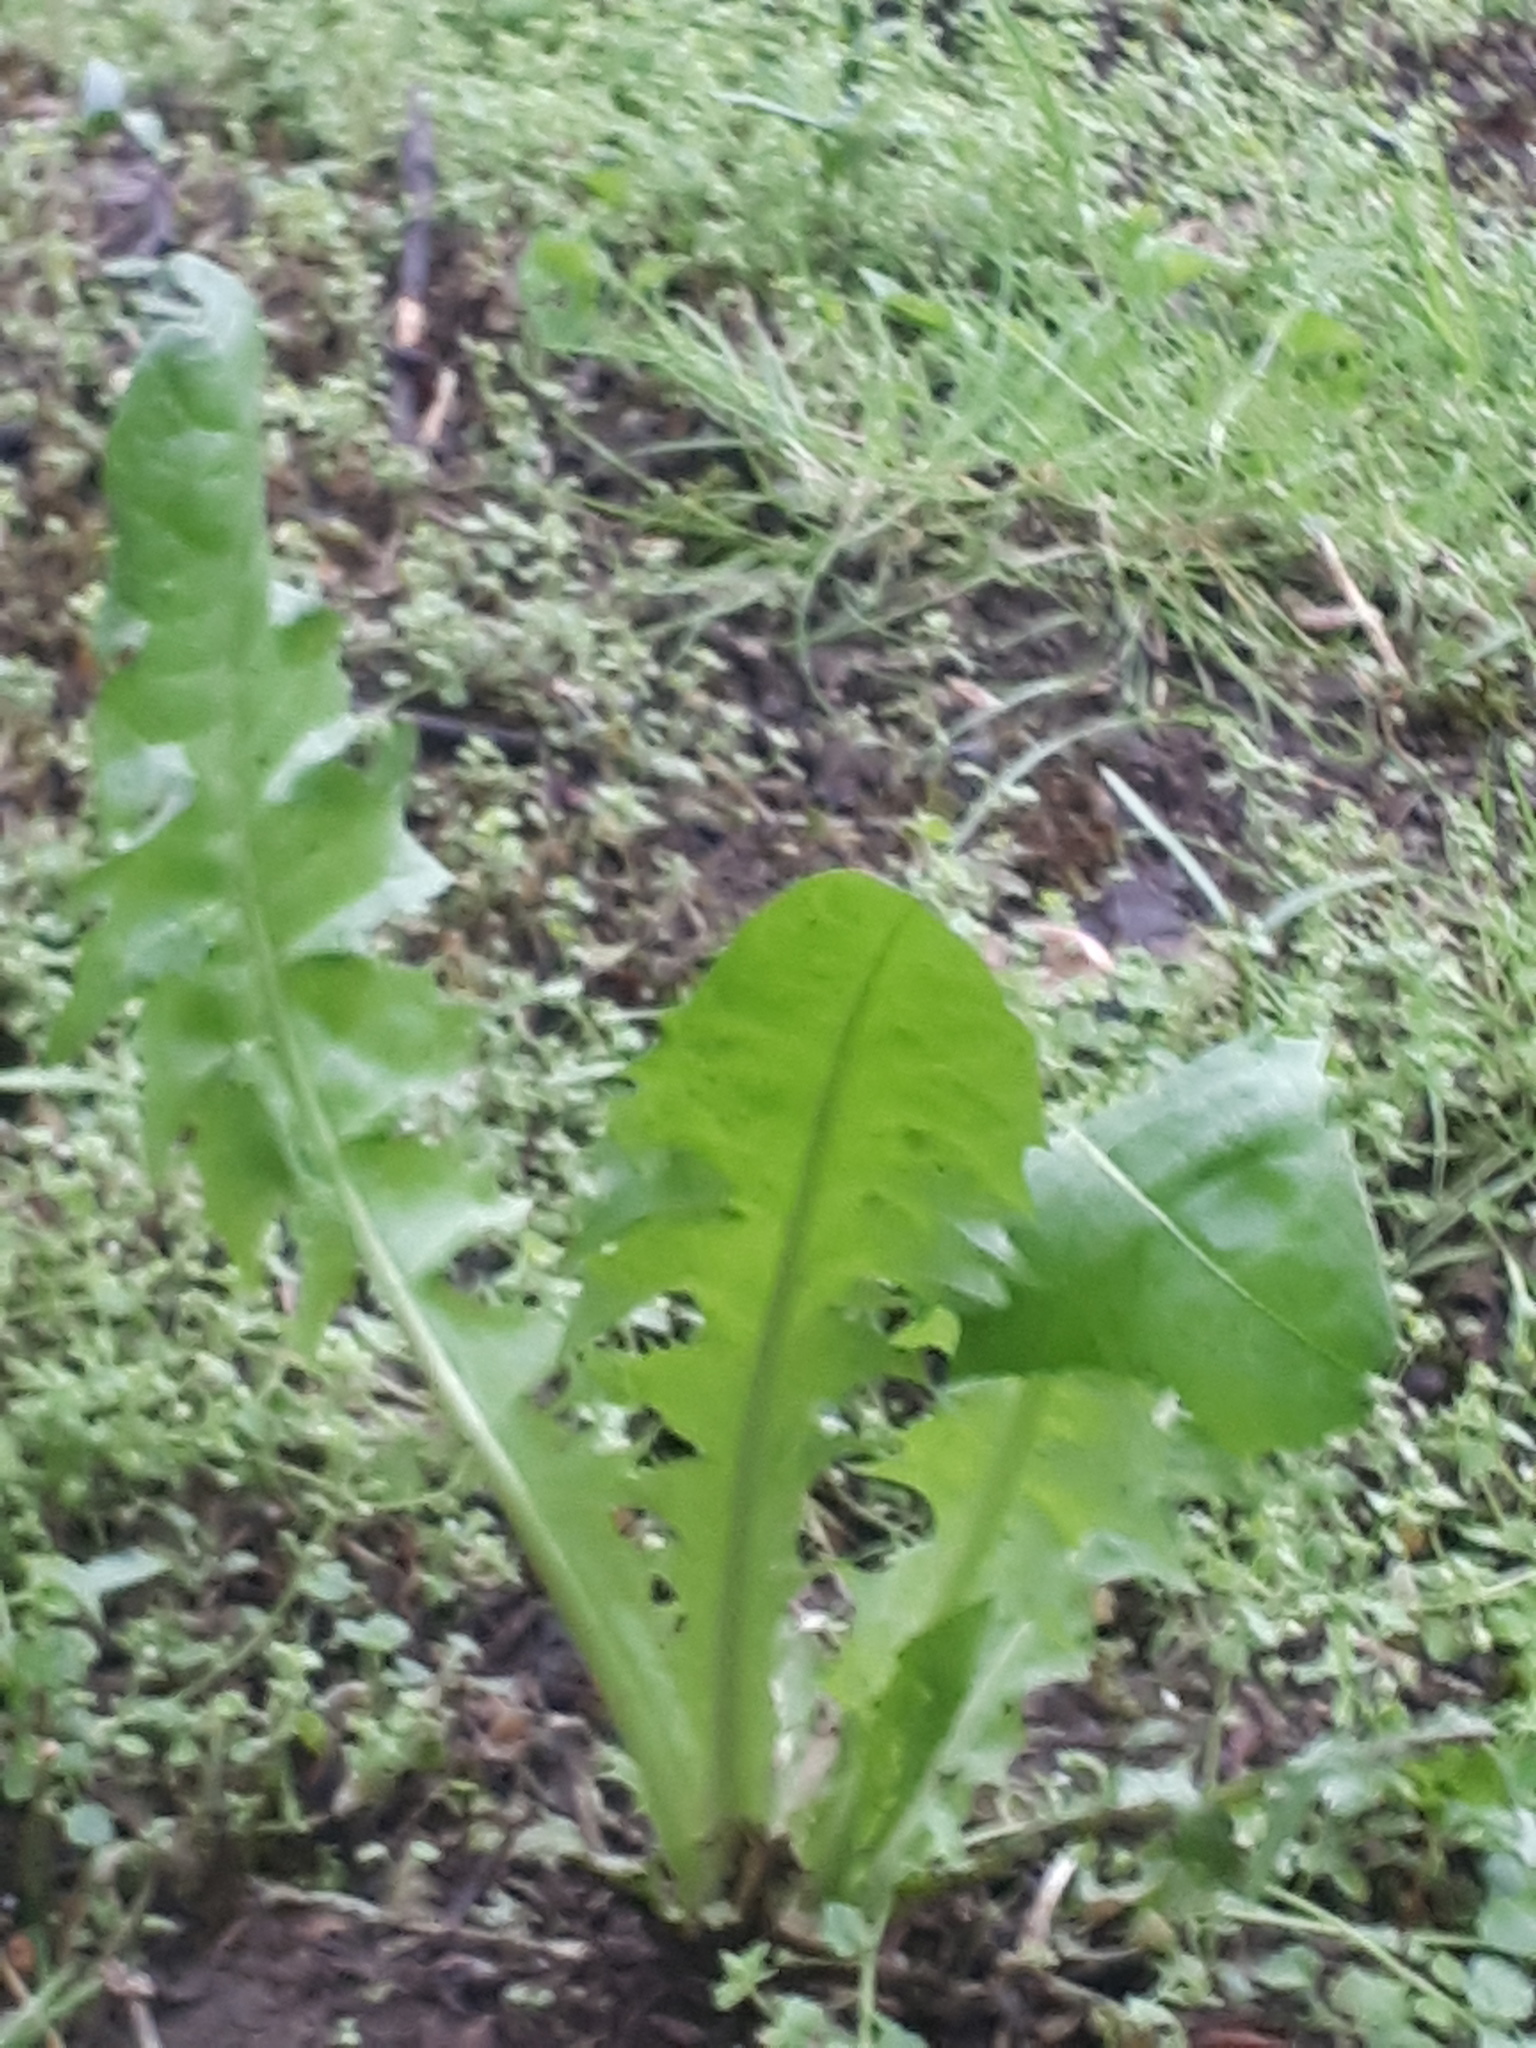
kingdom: Plantae
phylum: Tracheophyta
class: Magnoliopsida
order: Asterales
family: Asteraceae
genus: Taraxacum
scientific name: Taraxacum officinale
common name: Common dandelion
